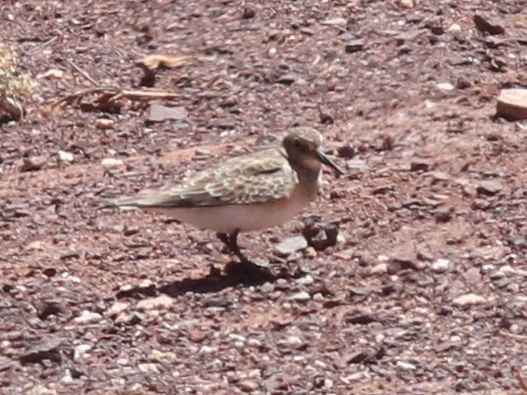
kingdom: Animalia
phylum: Chordata
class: Aves
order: Charadriiformes
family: Scolopacidae
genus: Calidris
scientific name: Calidris bairdii
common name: Baird's sandpiper
